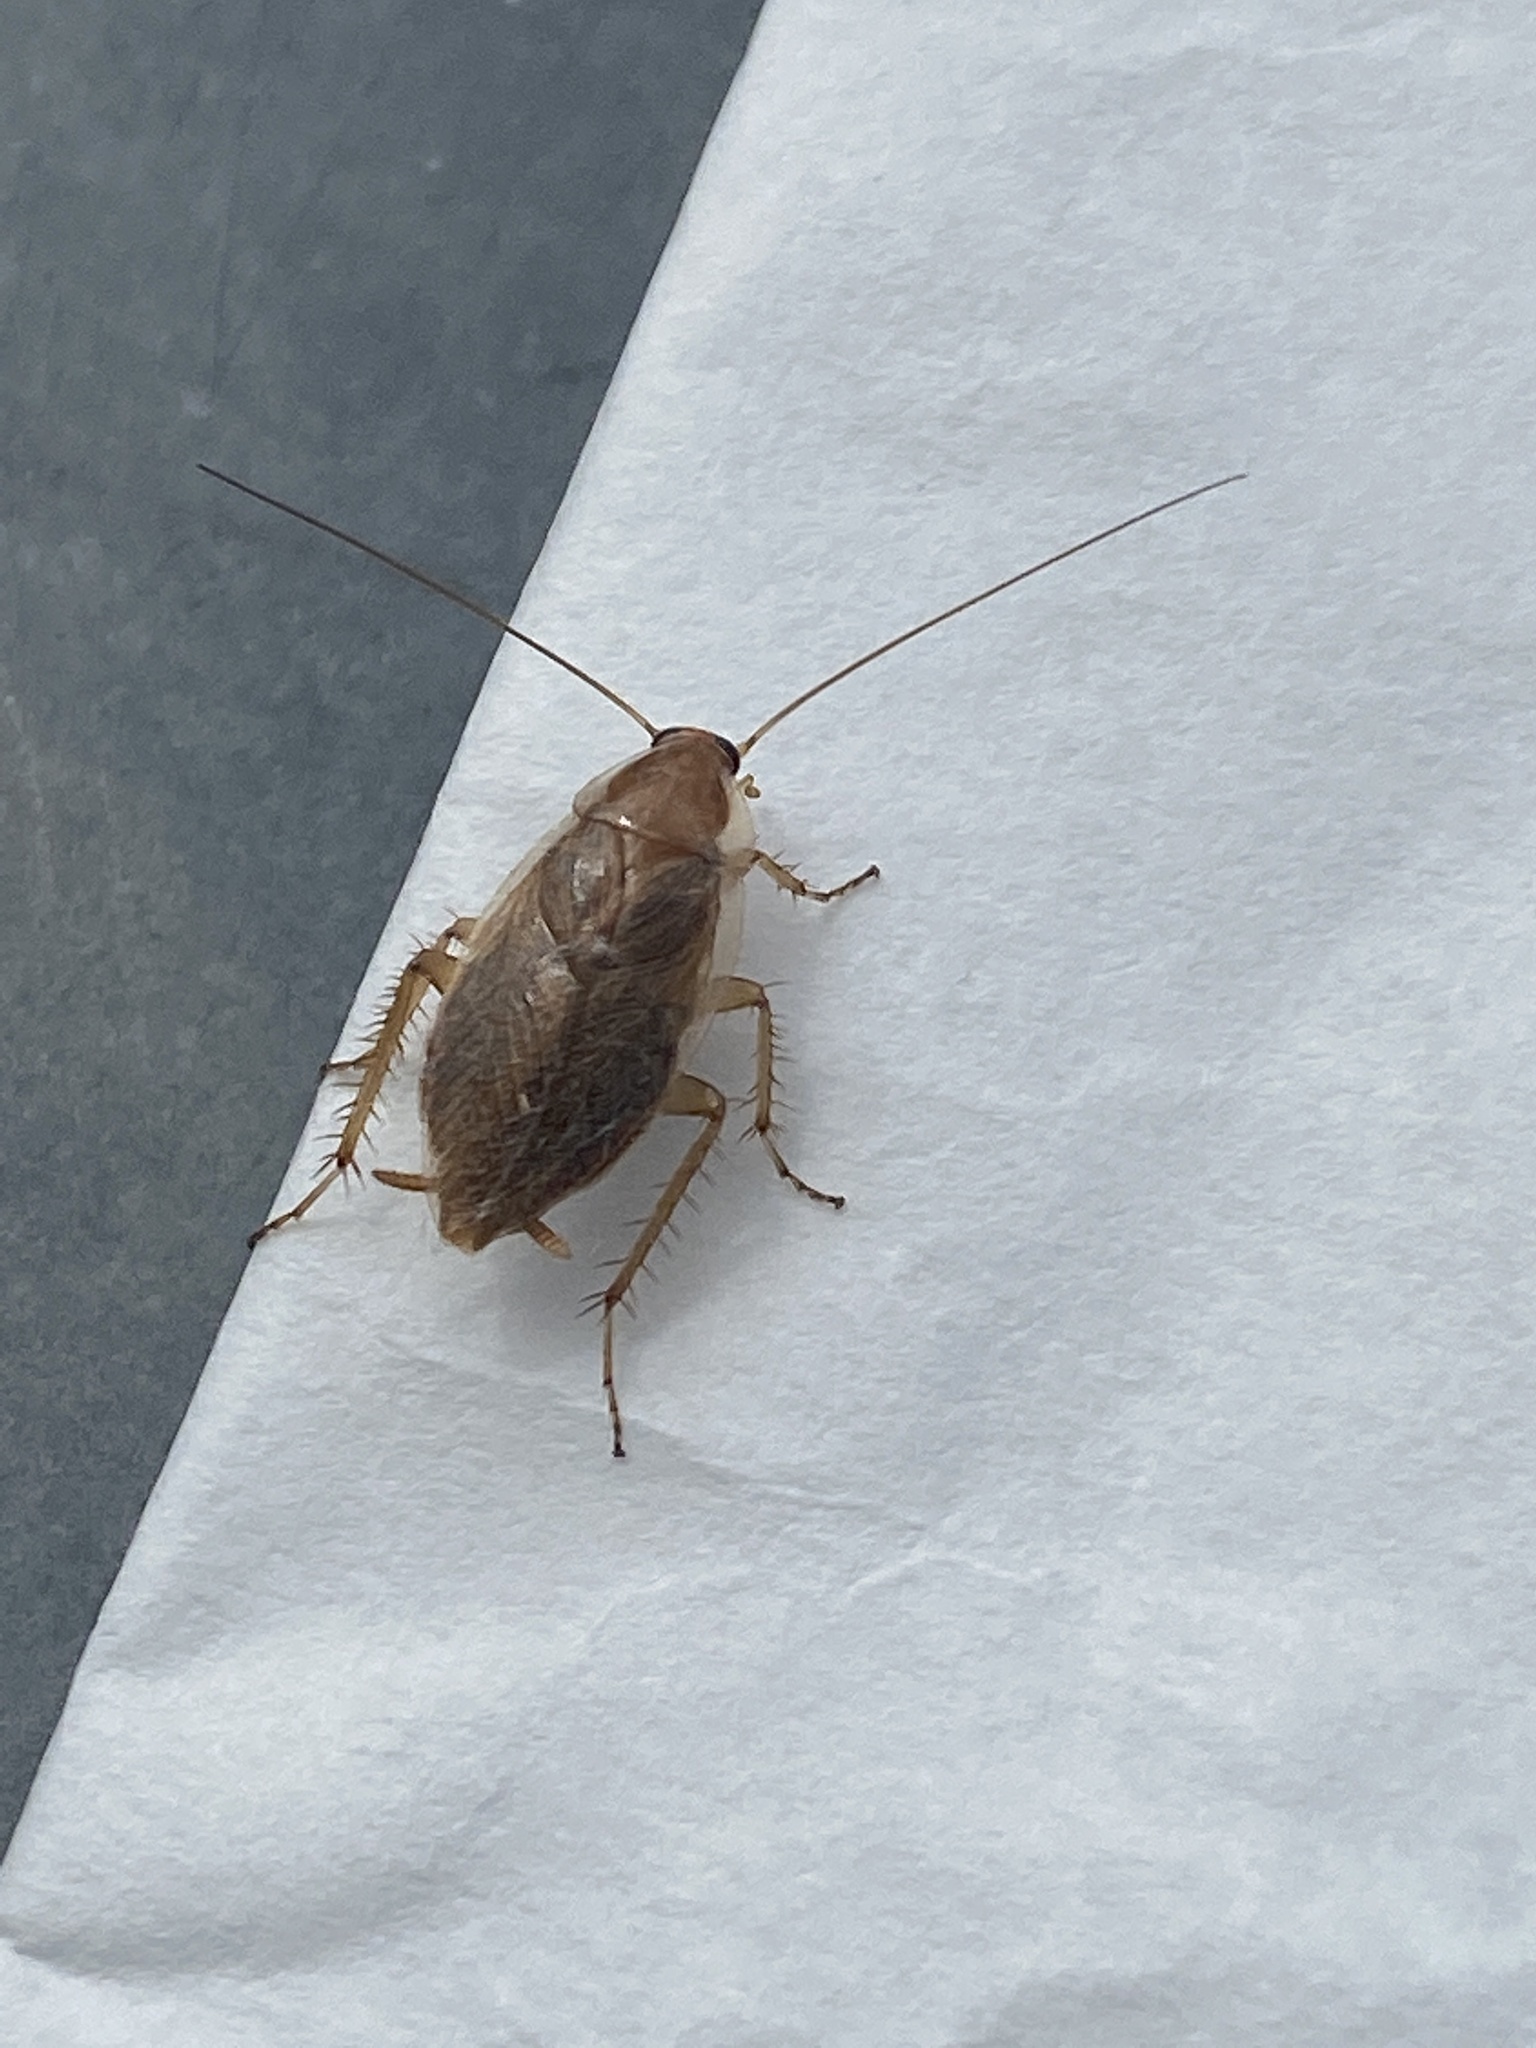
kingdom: Animalia
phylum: Arthropoda
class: Insecta
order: Blattodea
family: Ectobiidae
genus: Ectobius
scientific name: Ectobius vittiventris
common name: Garden cockroach
